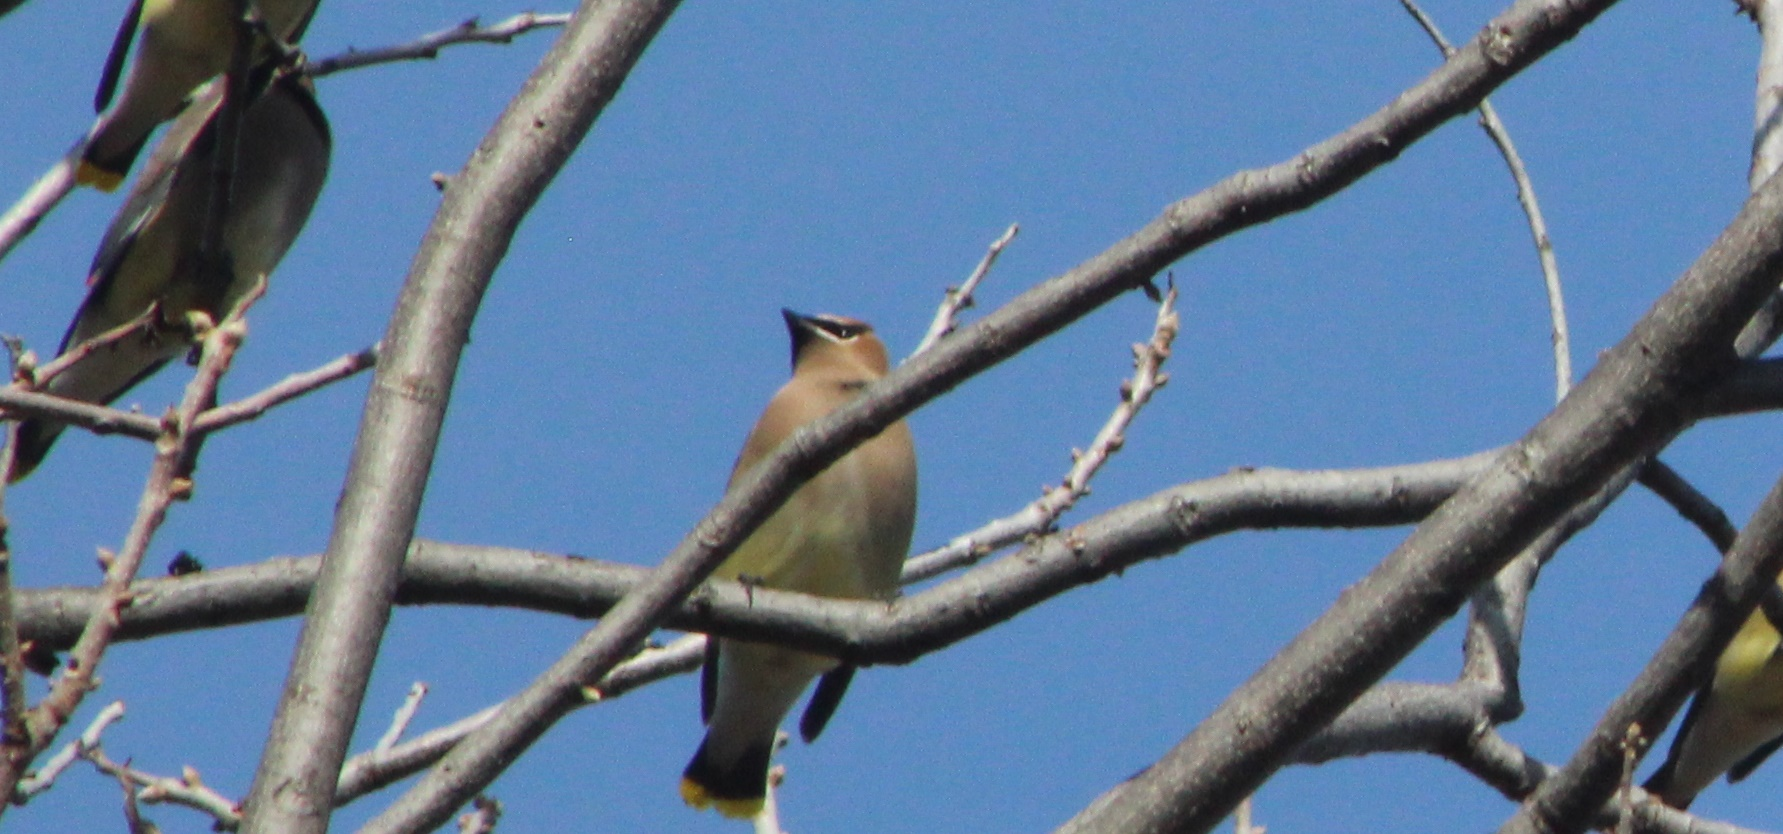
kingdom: Animalia
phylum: Chordata
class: Aves
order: Passeriformes
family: Bombycillidae
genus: Bombycilla
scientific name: Bombycilla cedrorum
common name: Cedar waxwing
